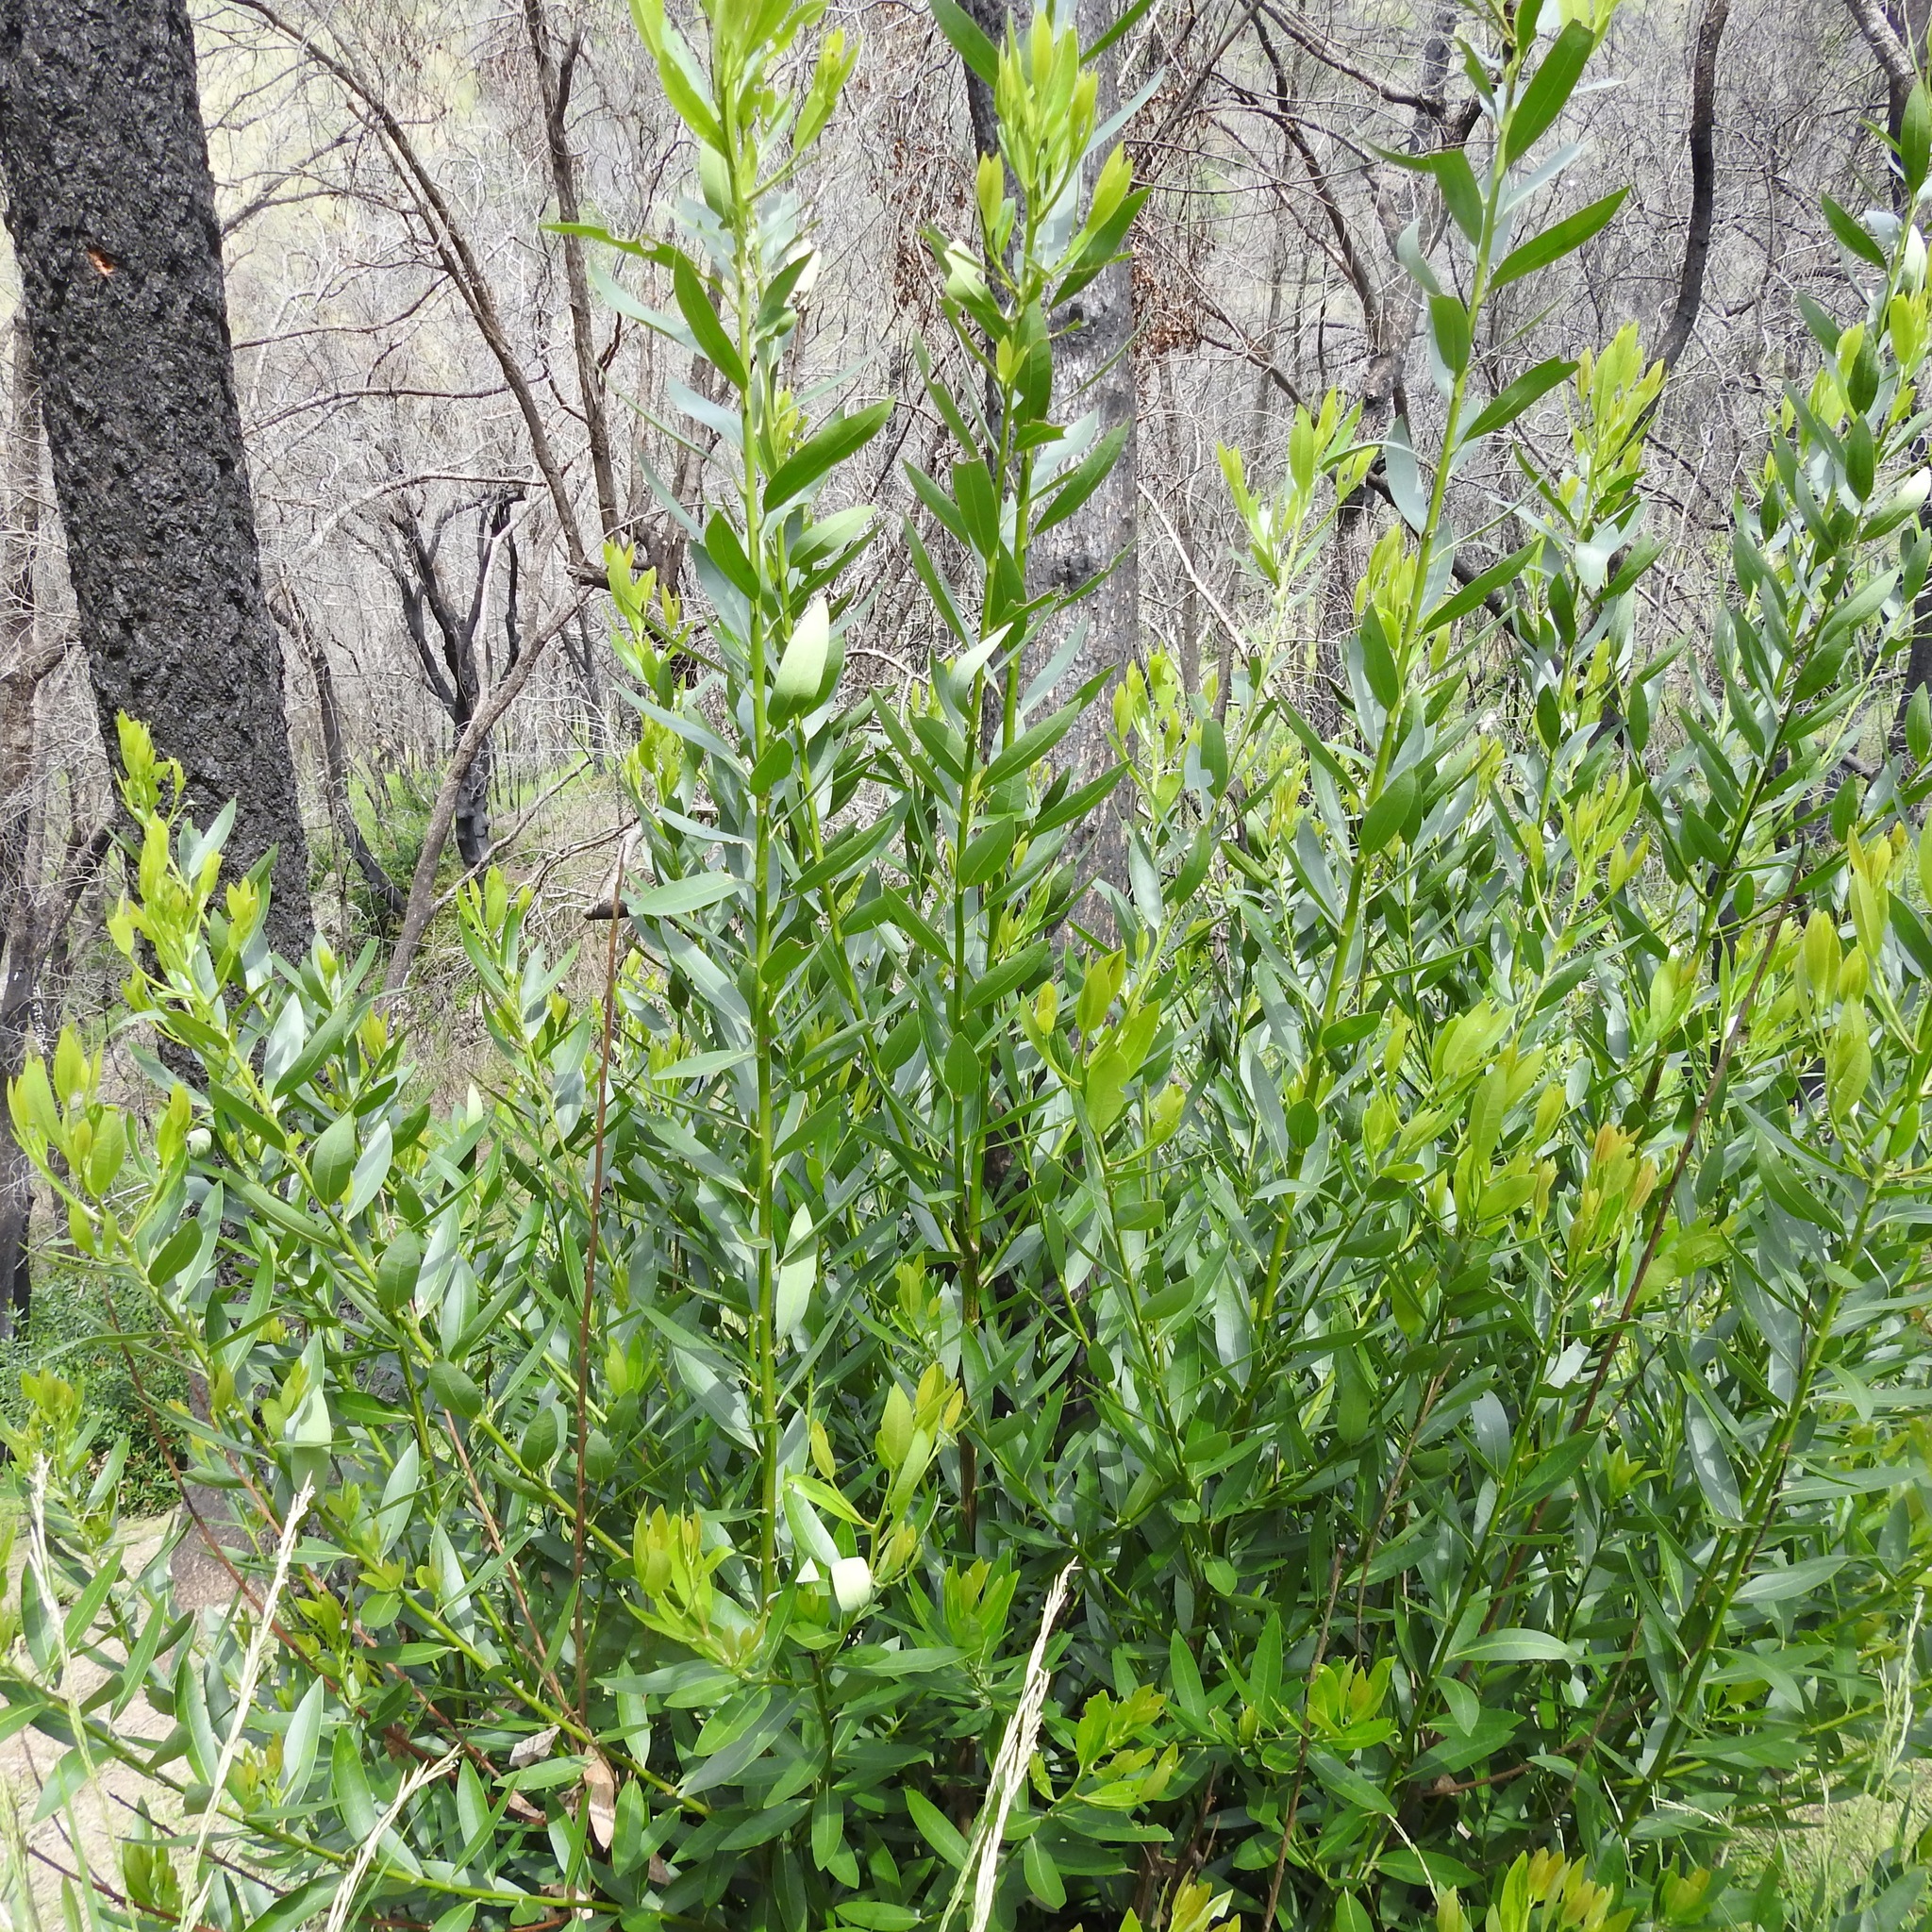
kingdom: Plantae
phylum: Tracheophyta
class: Magnoliopsida
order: Laurales
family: Lauraceae
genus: Umbellularia
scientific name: Umbellularia californica
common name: California bay
